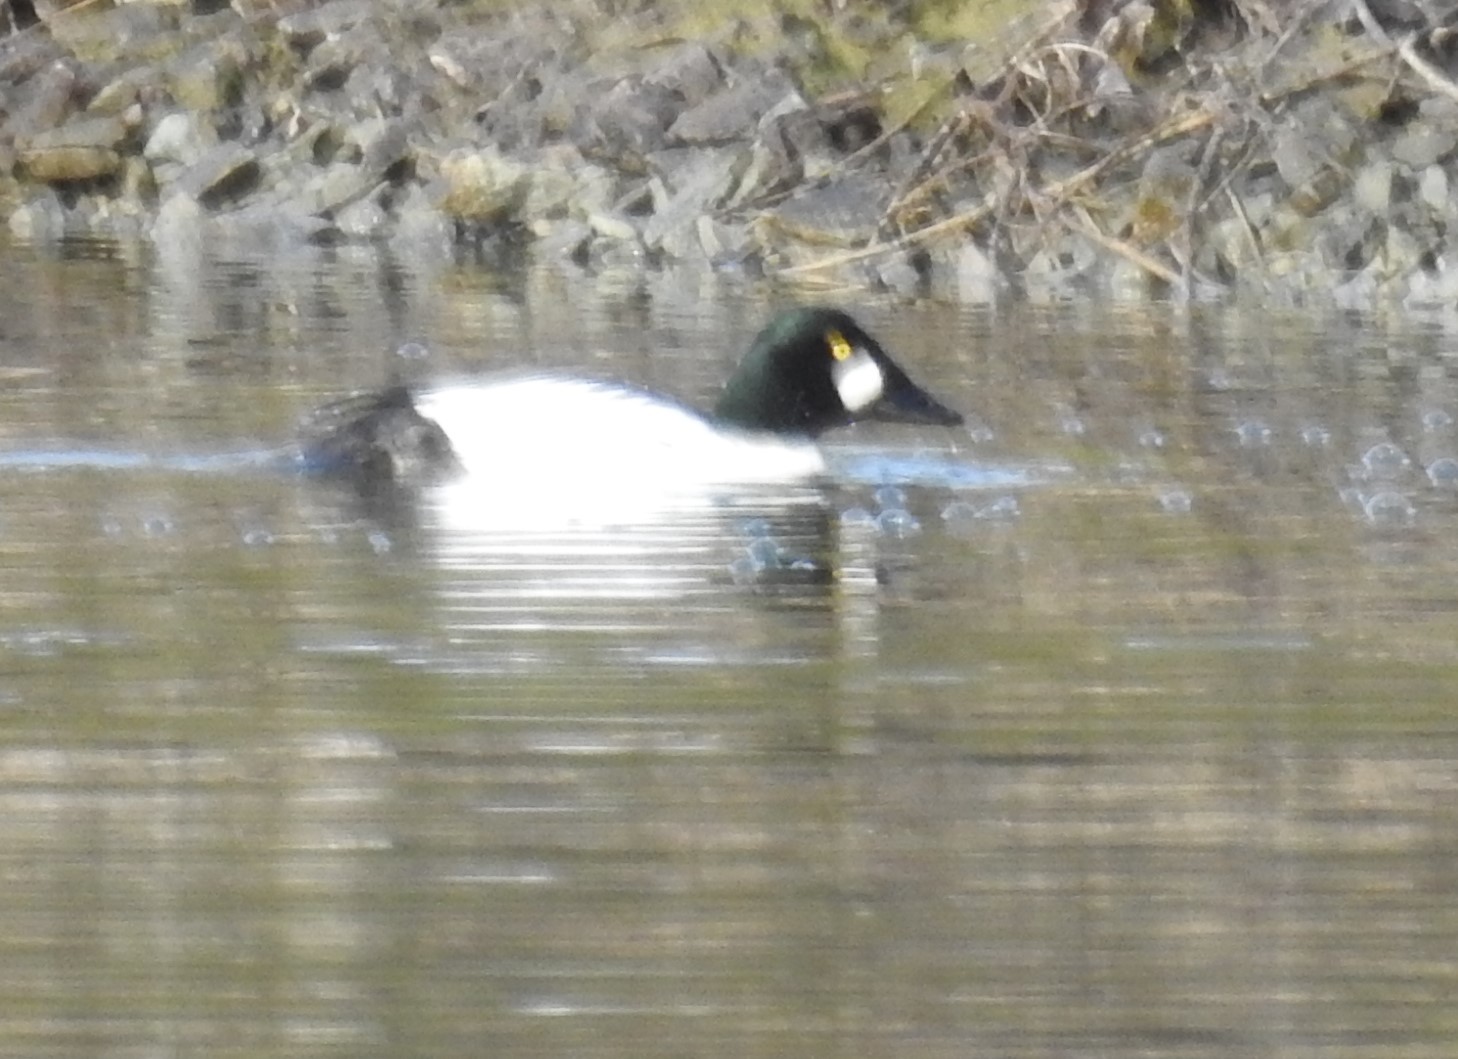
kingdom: Animalia
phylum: Chordata
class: Aves
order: Anseriformes
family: Anatidae
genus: Bucephala
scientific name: Bucephala clangula
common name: Common goldeneye
